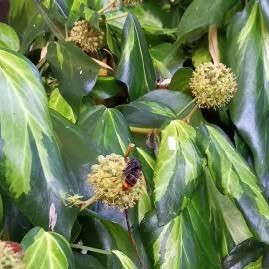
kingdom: Animalia
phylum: Arthropoda
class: Insecta
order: Hymenoptera
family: Vespidae
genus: Vespa
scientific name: Vespa velutina
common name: Asian hornet
